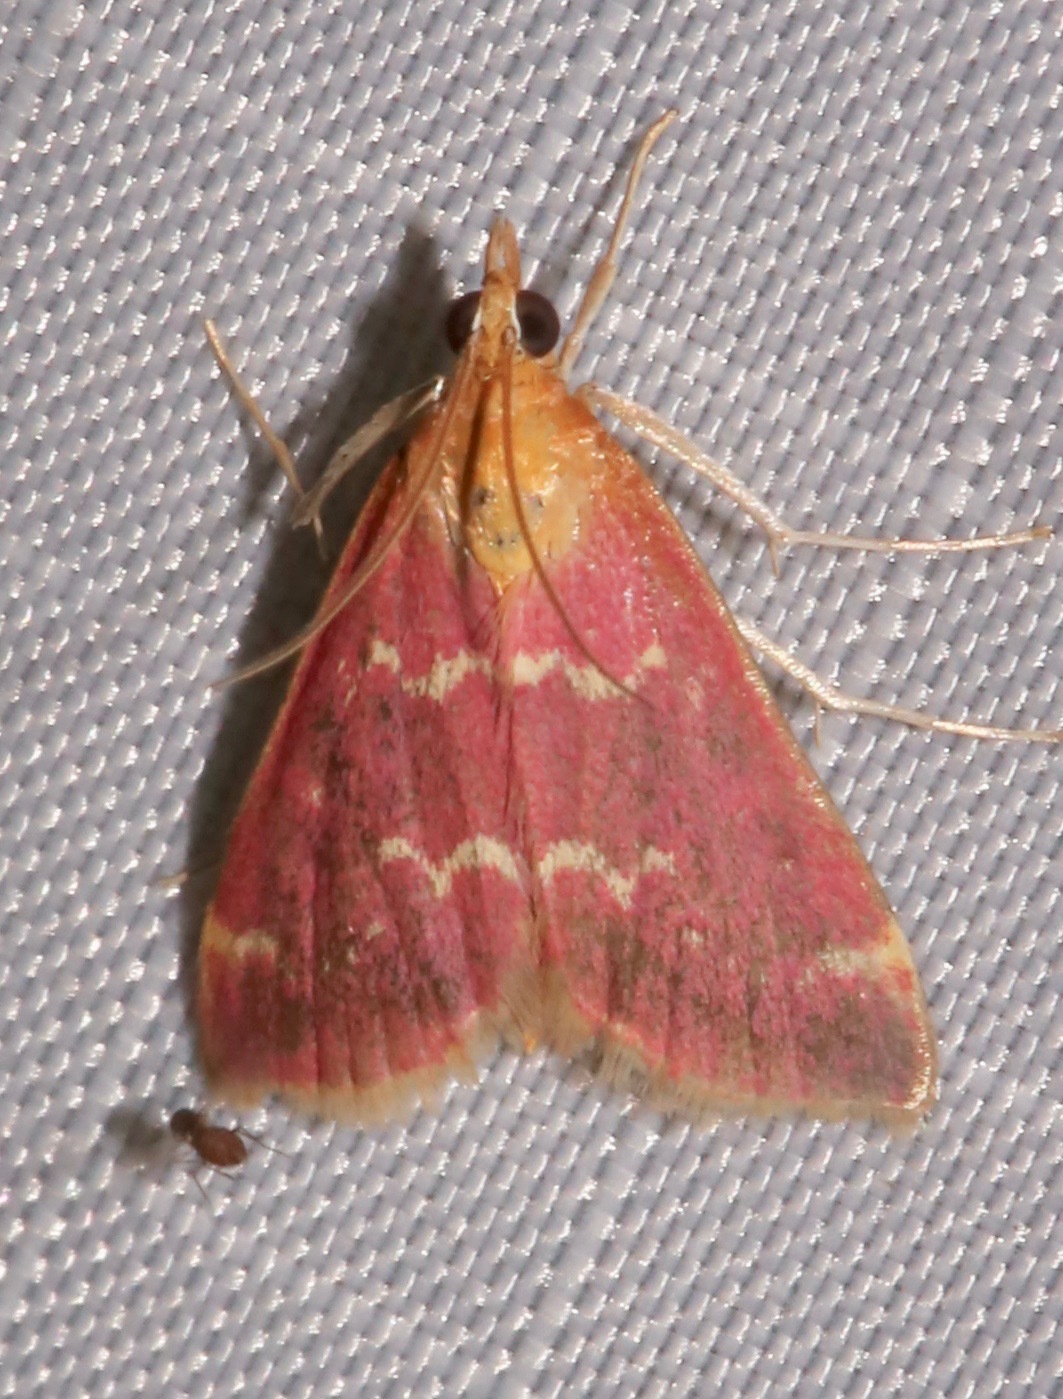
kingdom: Animalia
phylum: Arthropoda
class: Insecta
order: Lepidoptera
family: Crambidae
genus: Pyrausta
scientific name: Pyrausta signatalis
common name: Raspberry pyrausta moth
